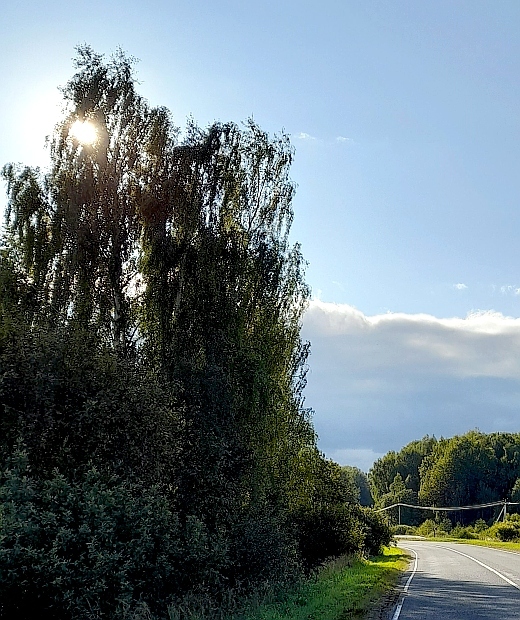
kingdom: Plantae
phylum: Tracheophyta
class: Magnoliopsida
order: Fagales
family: Betulaceae
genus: Betula
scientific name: Betula pendula
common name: Silver birch
